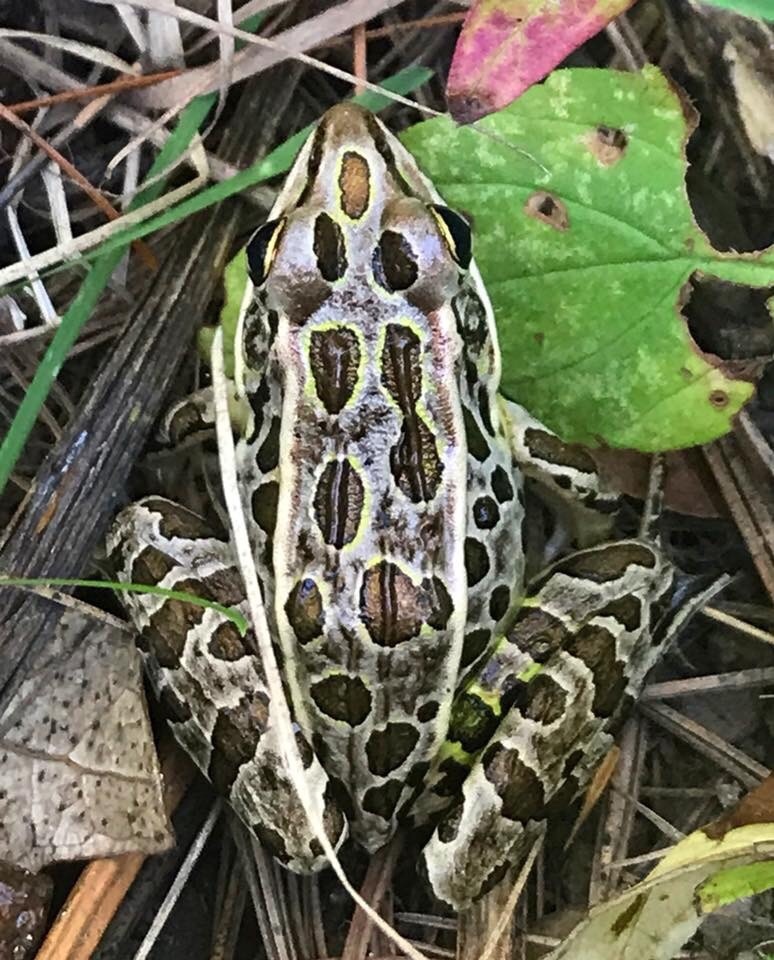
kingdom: Animalia
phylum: Chordata
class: Amphibia
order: Anura
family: Ranidae
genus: Lithobates
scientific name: Lithobates pipiens
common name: Northern leopard frog
